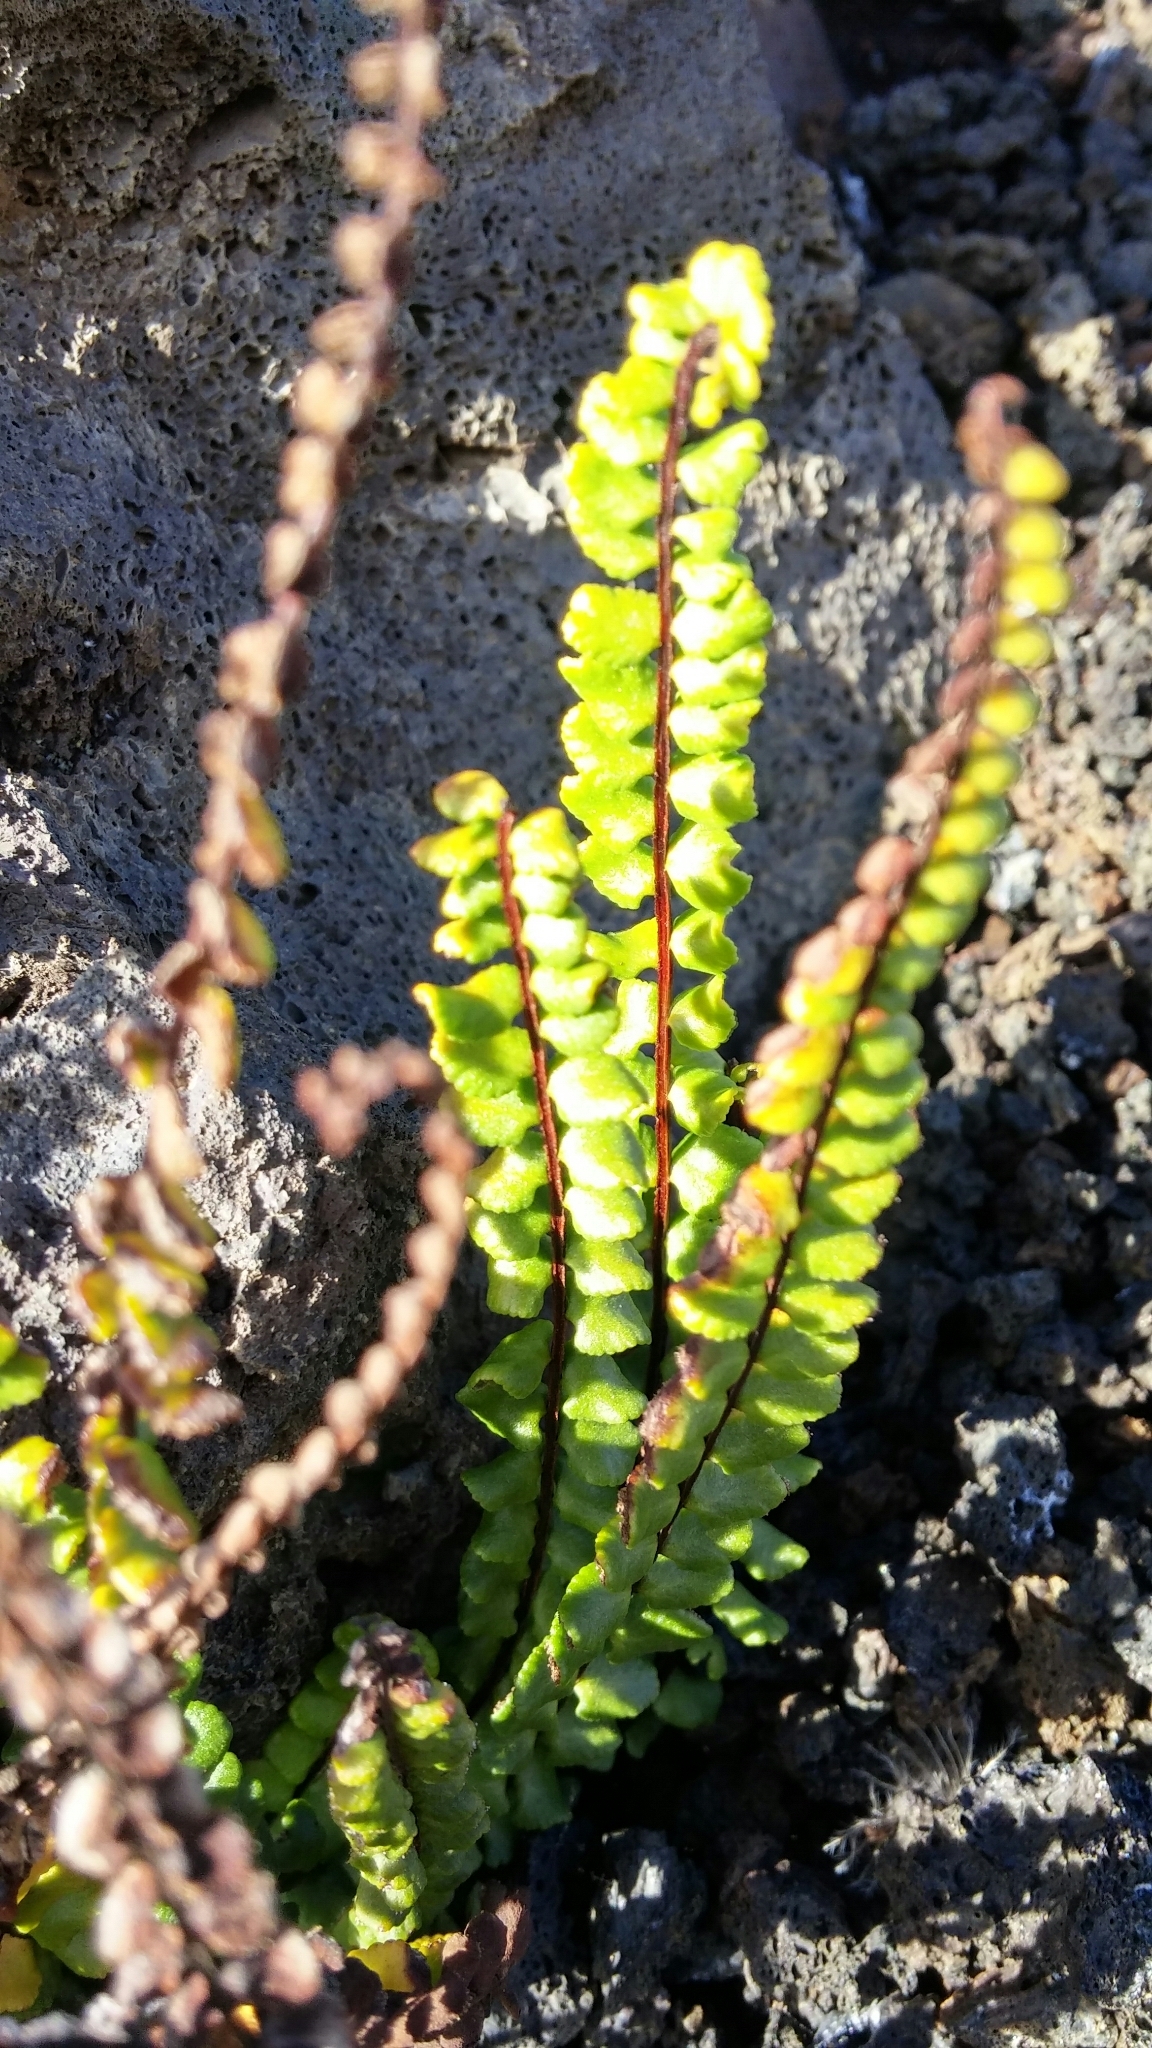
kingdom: Plantae
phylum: Tracheophyta
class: Polypodiopsida
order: Polypodiales
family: Aspleniaceae
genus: Asplenium
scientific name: Asplenium densum
